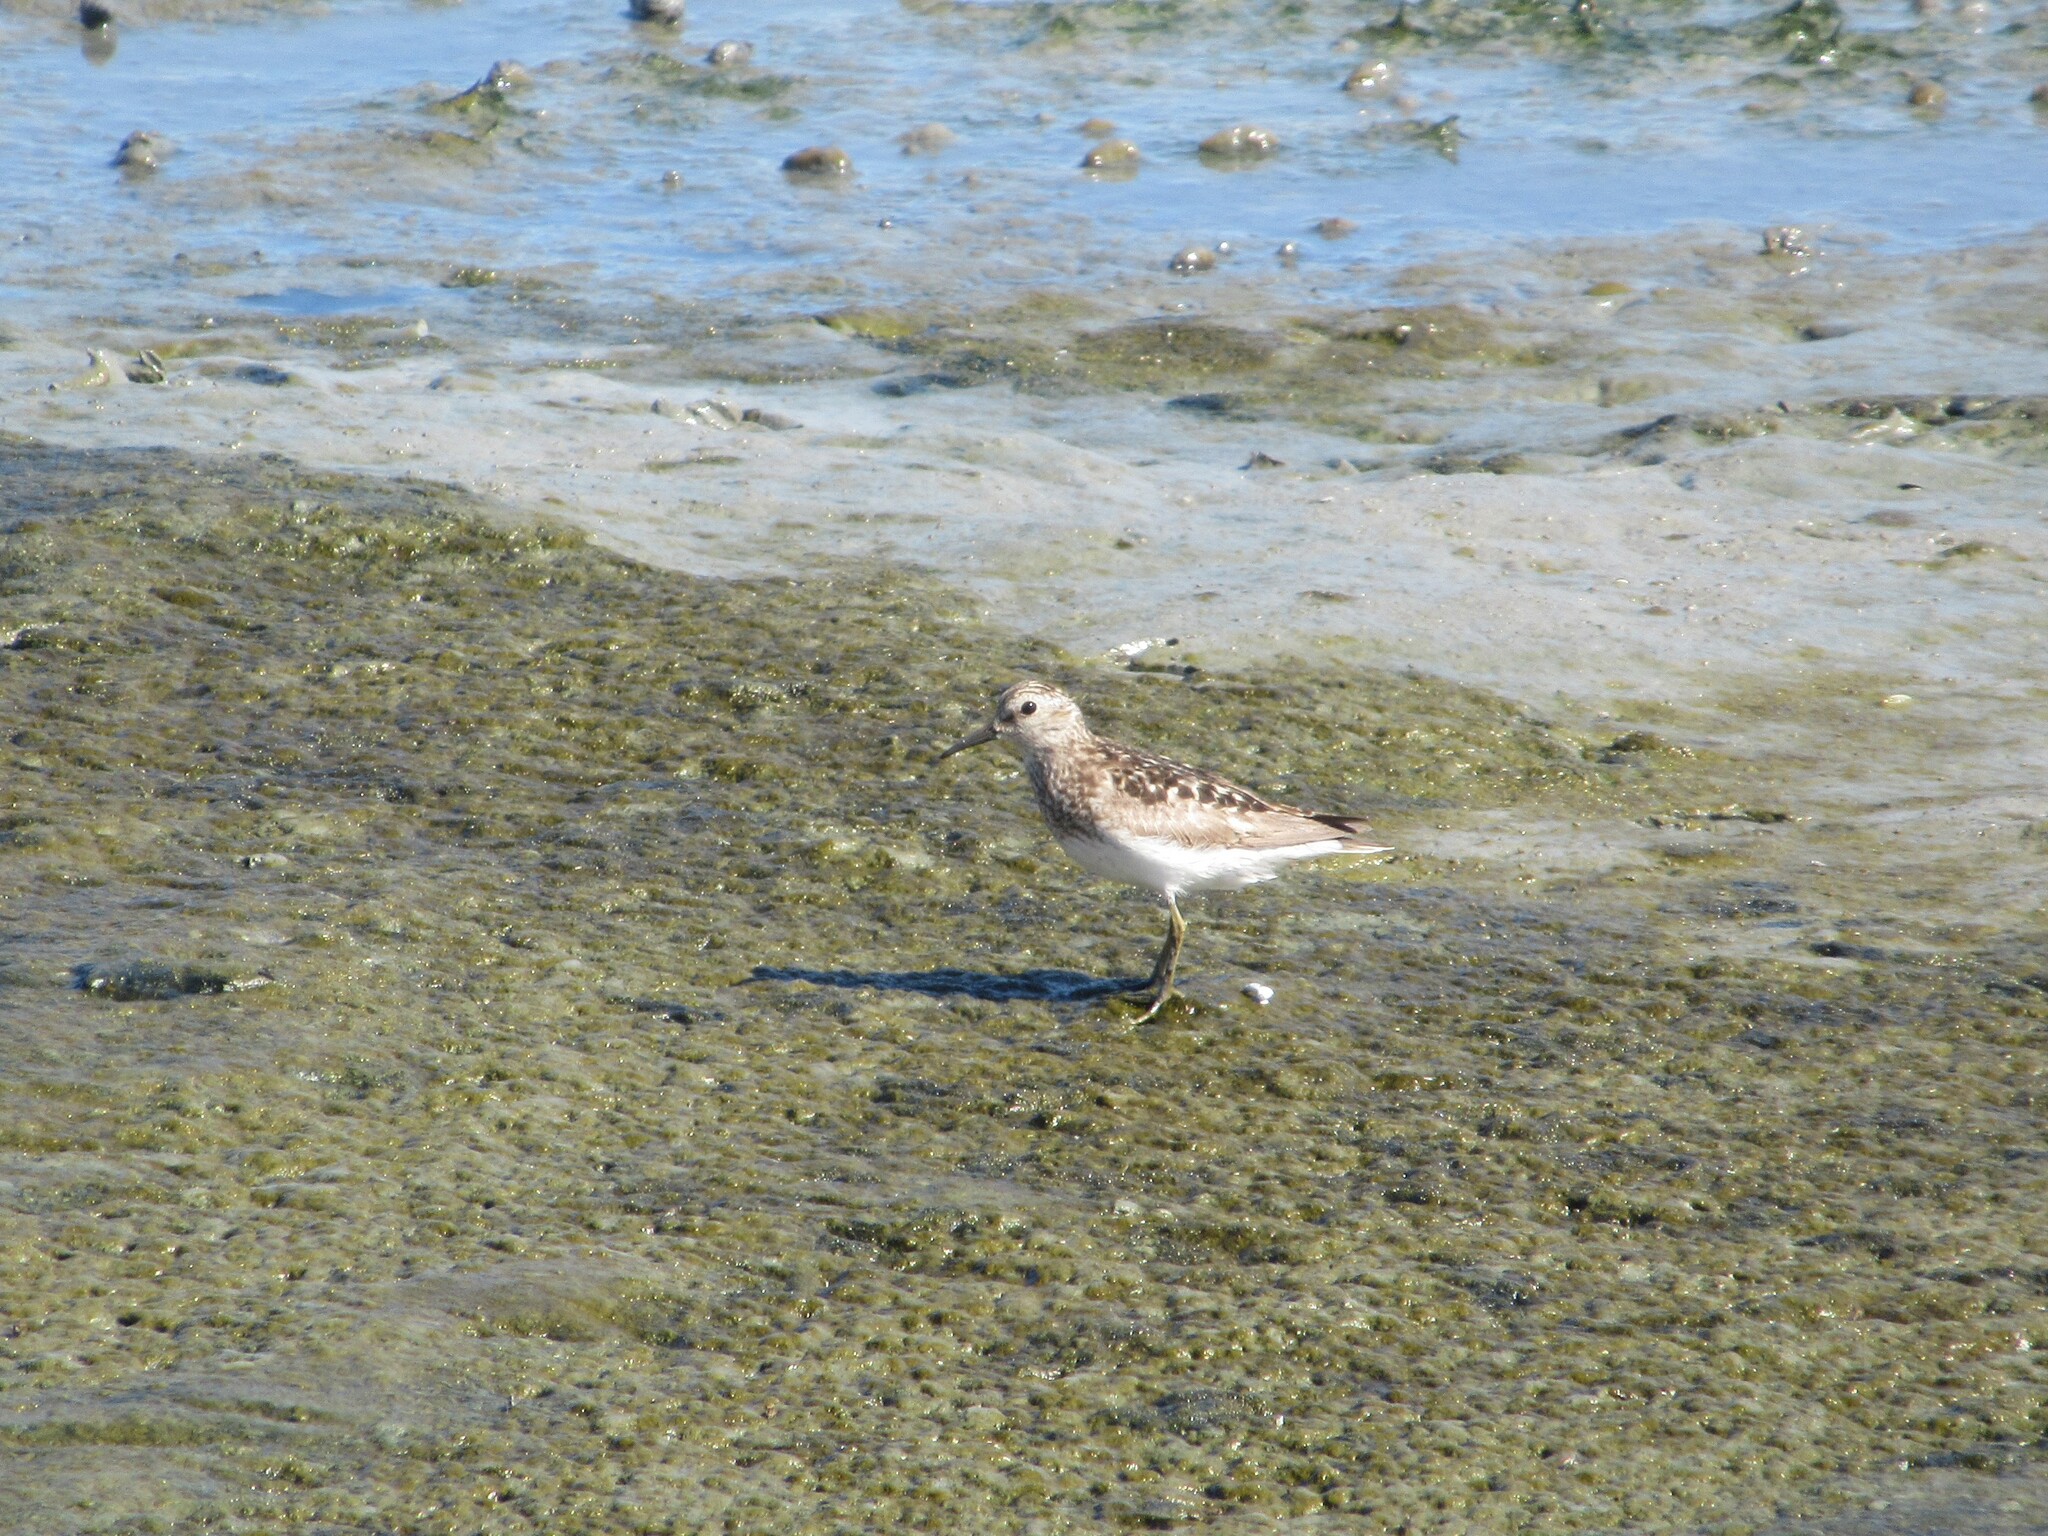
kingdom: Animalia
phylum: Chordata
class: Aves
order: Charadriiformes
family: Scolopacidae
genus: Calidris
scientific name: Calidris minutilla
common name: Least sandpiper
